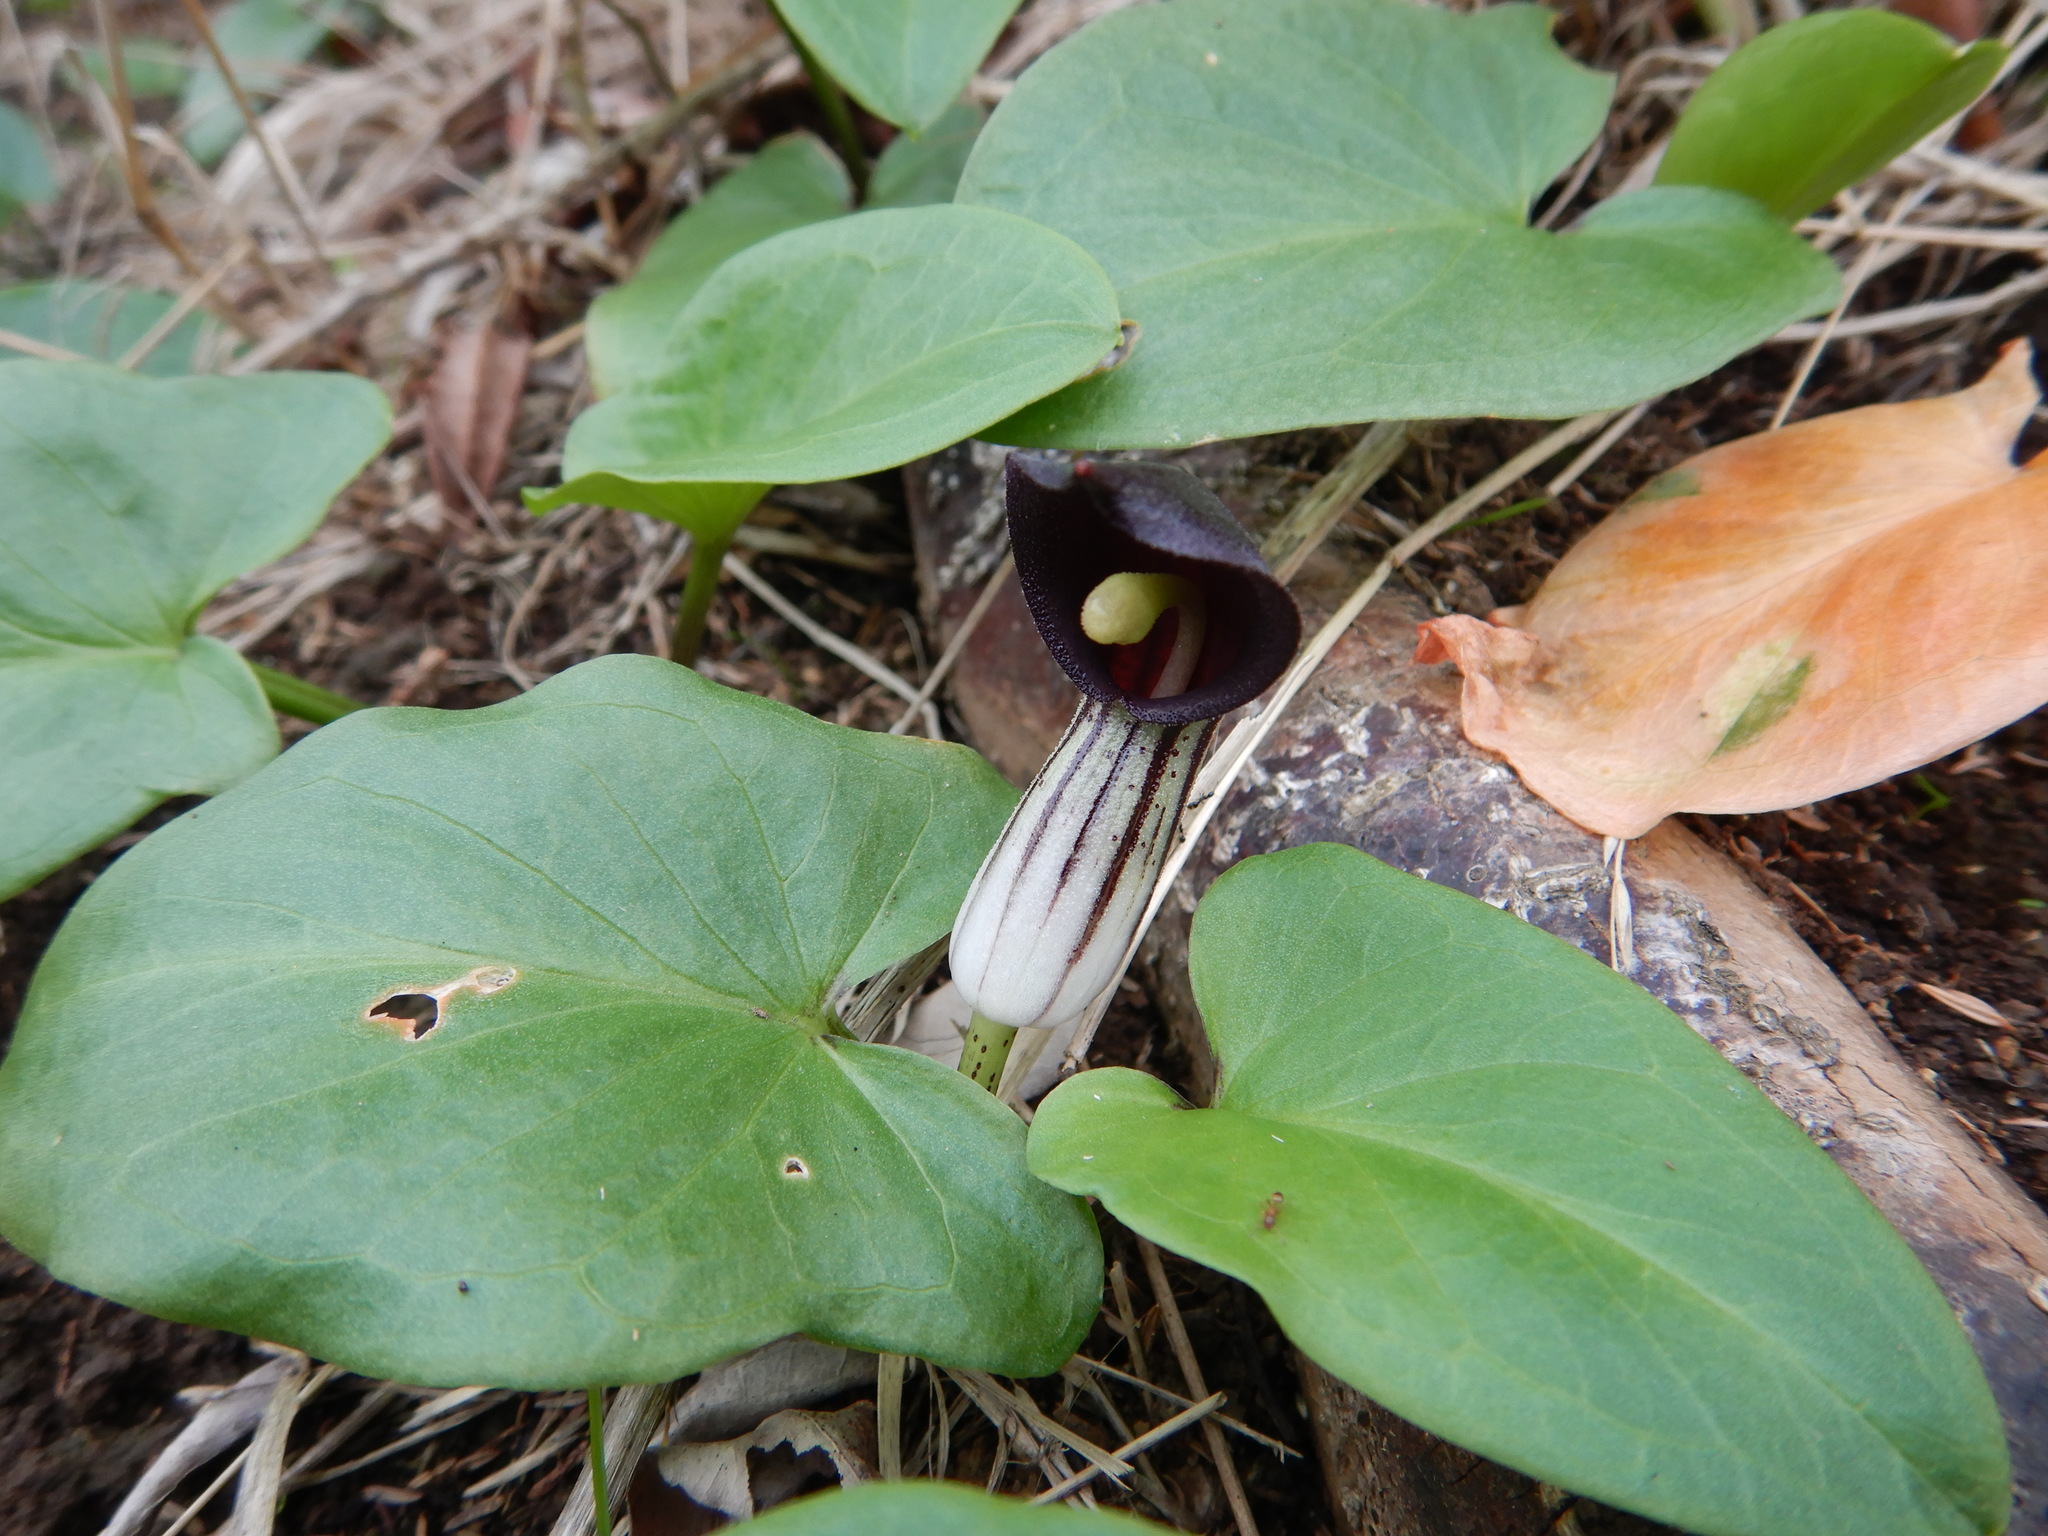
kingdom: Plantae
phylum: Tracheophyta
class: Liliopsida
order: Alismatales
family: Araceae
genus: Arisarum
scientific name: Arisarum simorrhinum
